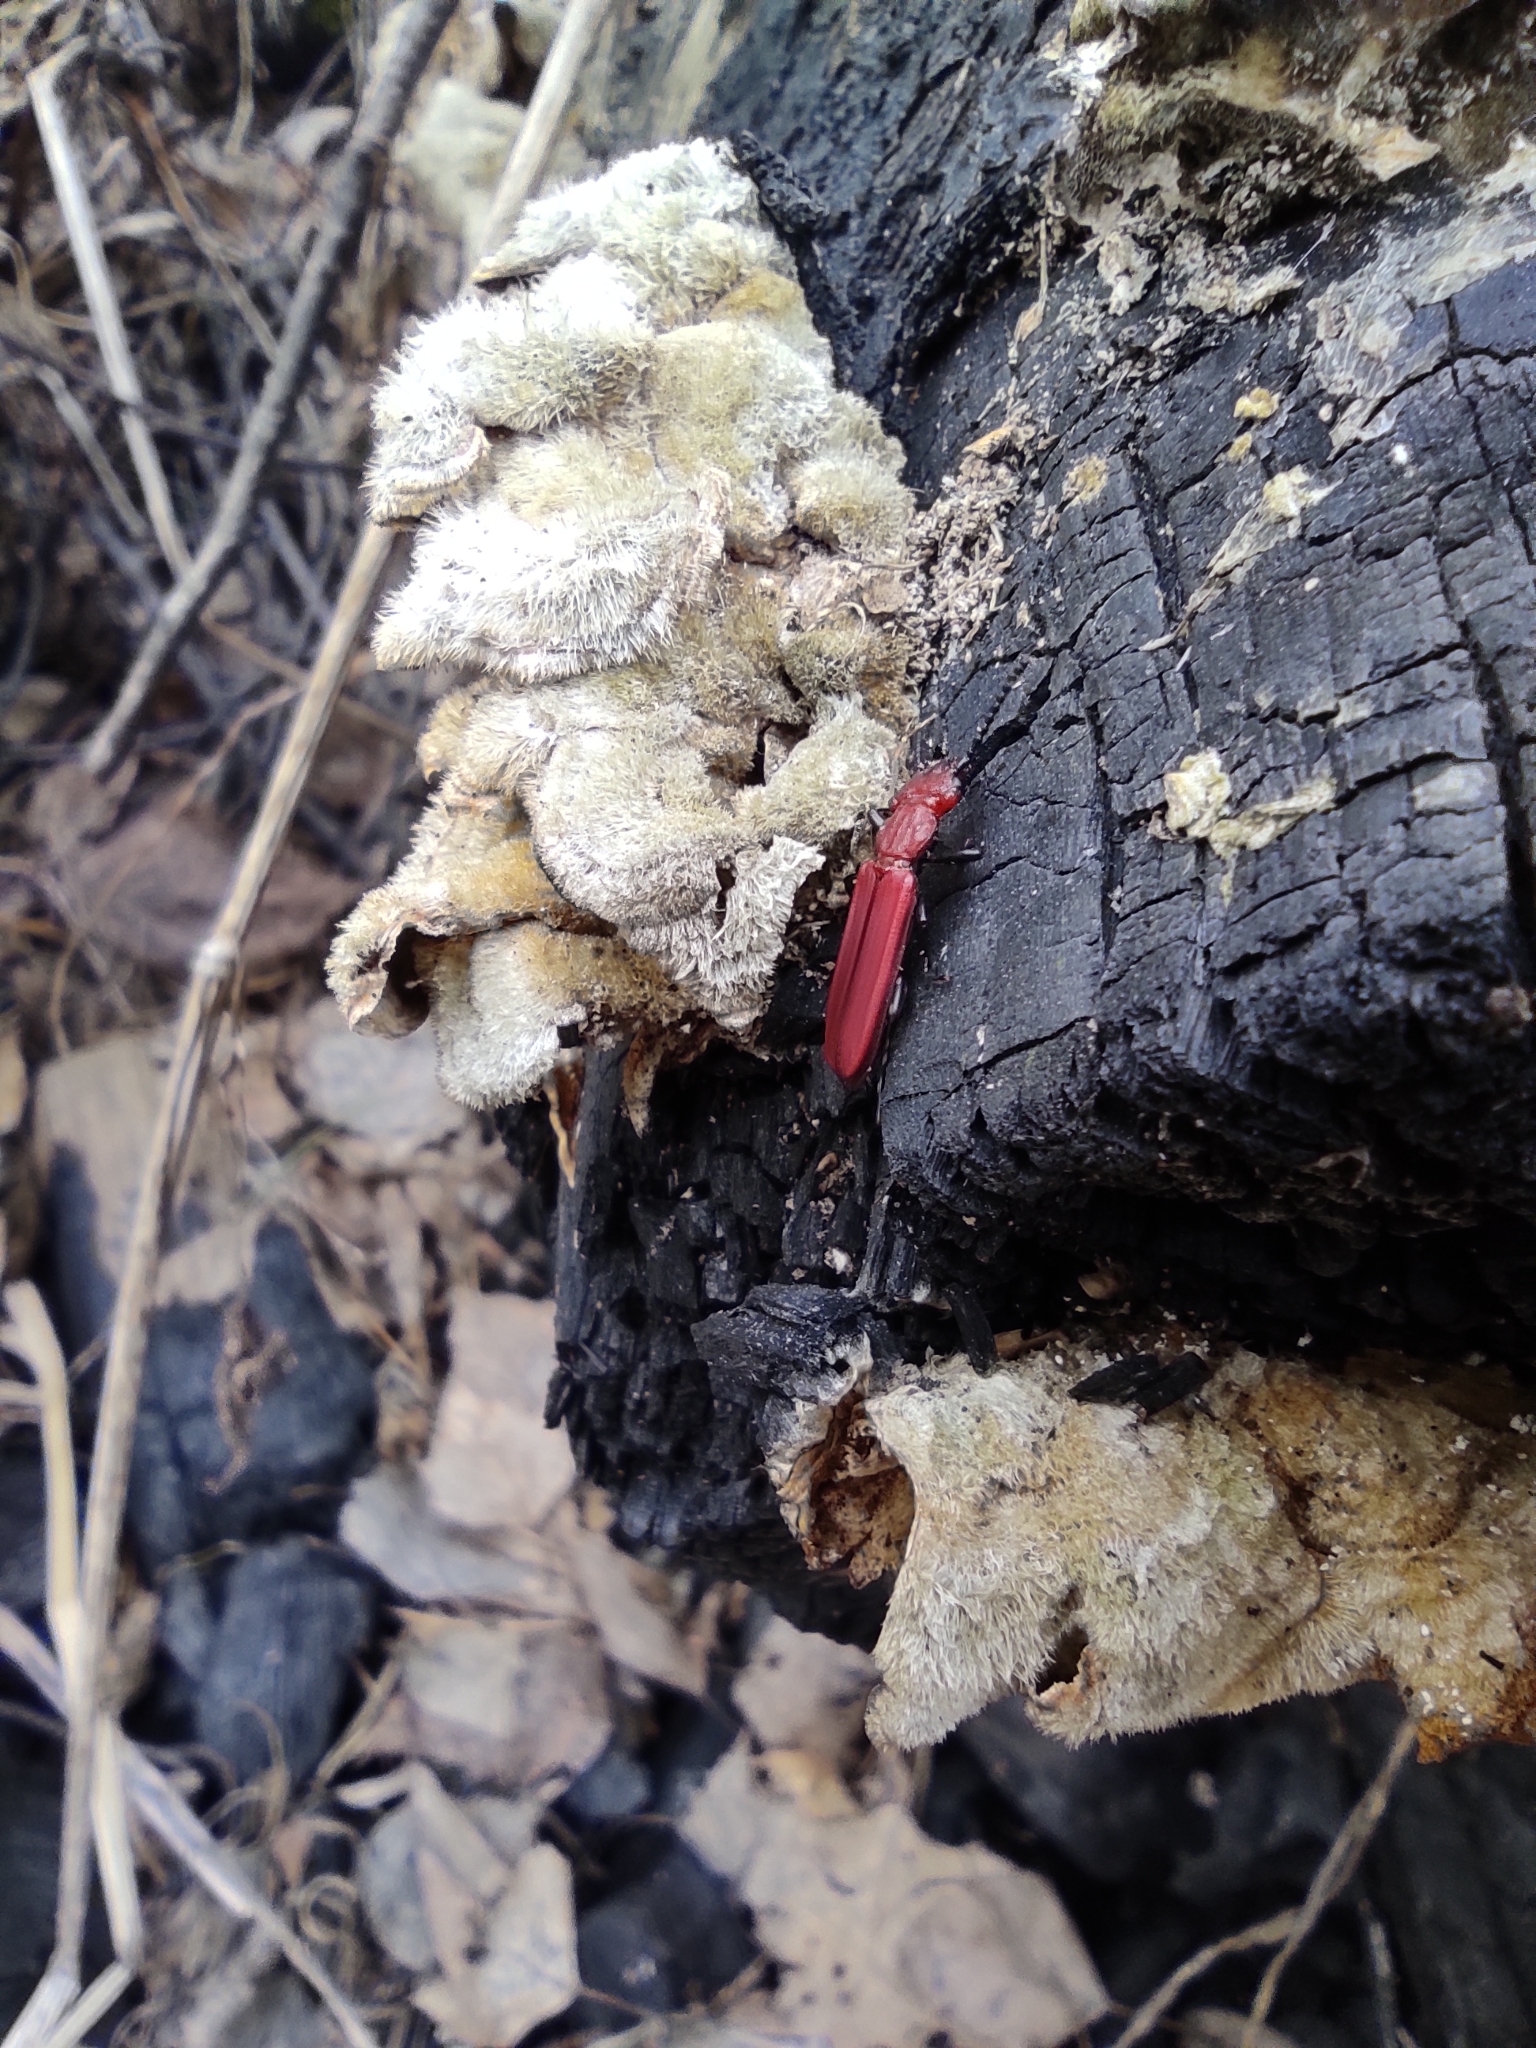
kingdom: Animalia
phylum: Arthropoda
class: Insecta
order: Coleoptera
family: Cucujidae
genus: Cucujus
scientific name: Cucujus haematodes
